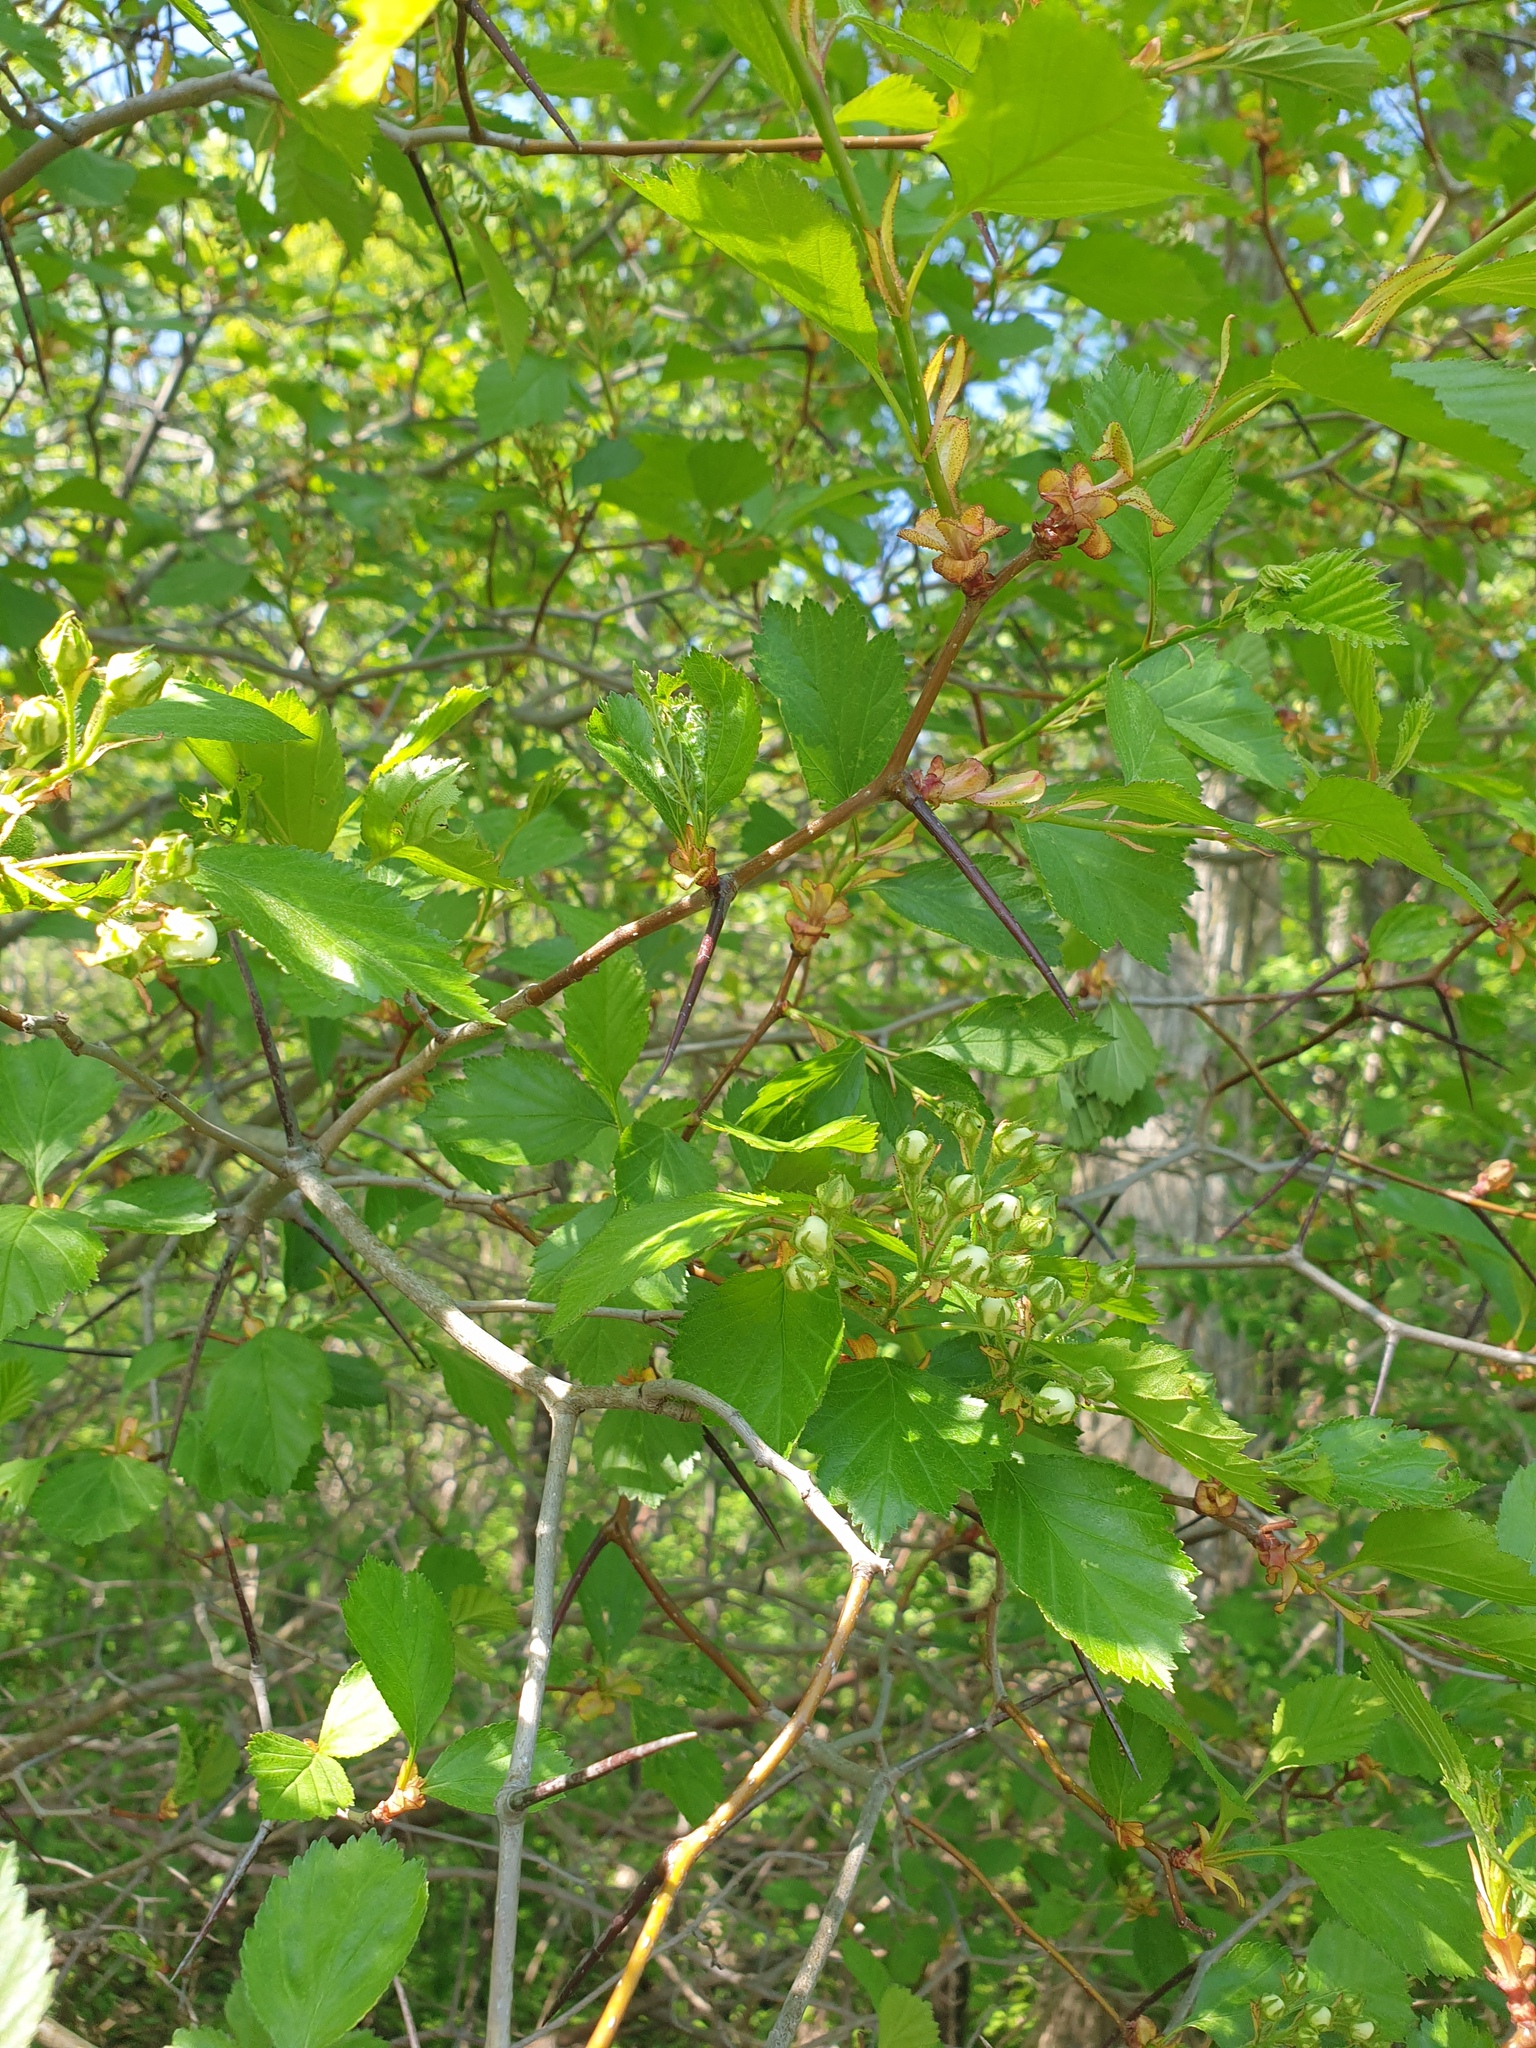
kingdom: Plantae
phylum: Tracheophyta
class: Magnoliopsida
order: Rosales
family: Rosaceae
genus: Crataegus
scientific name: Crataegus chrysocarpa
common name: Fire-berry hawthorn
